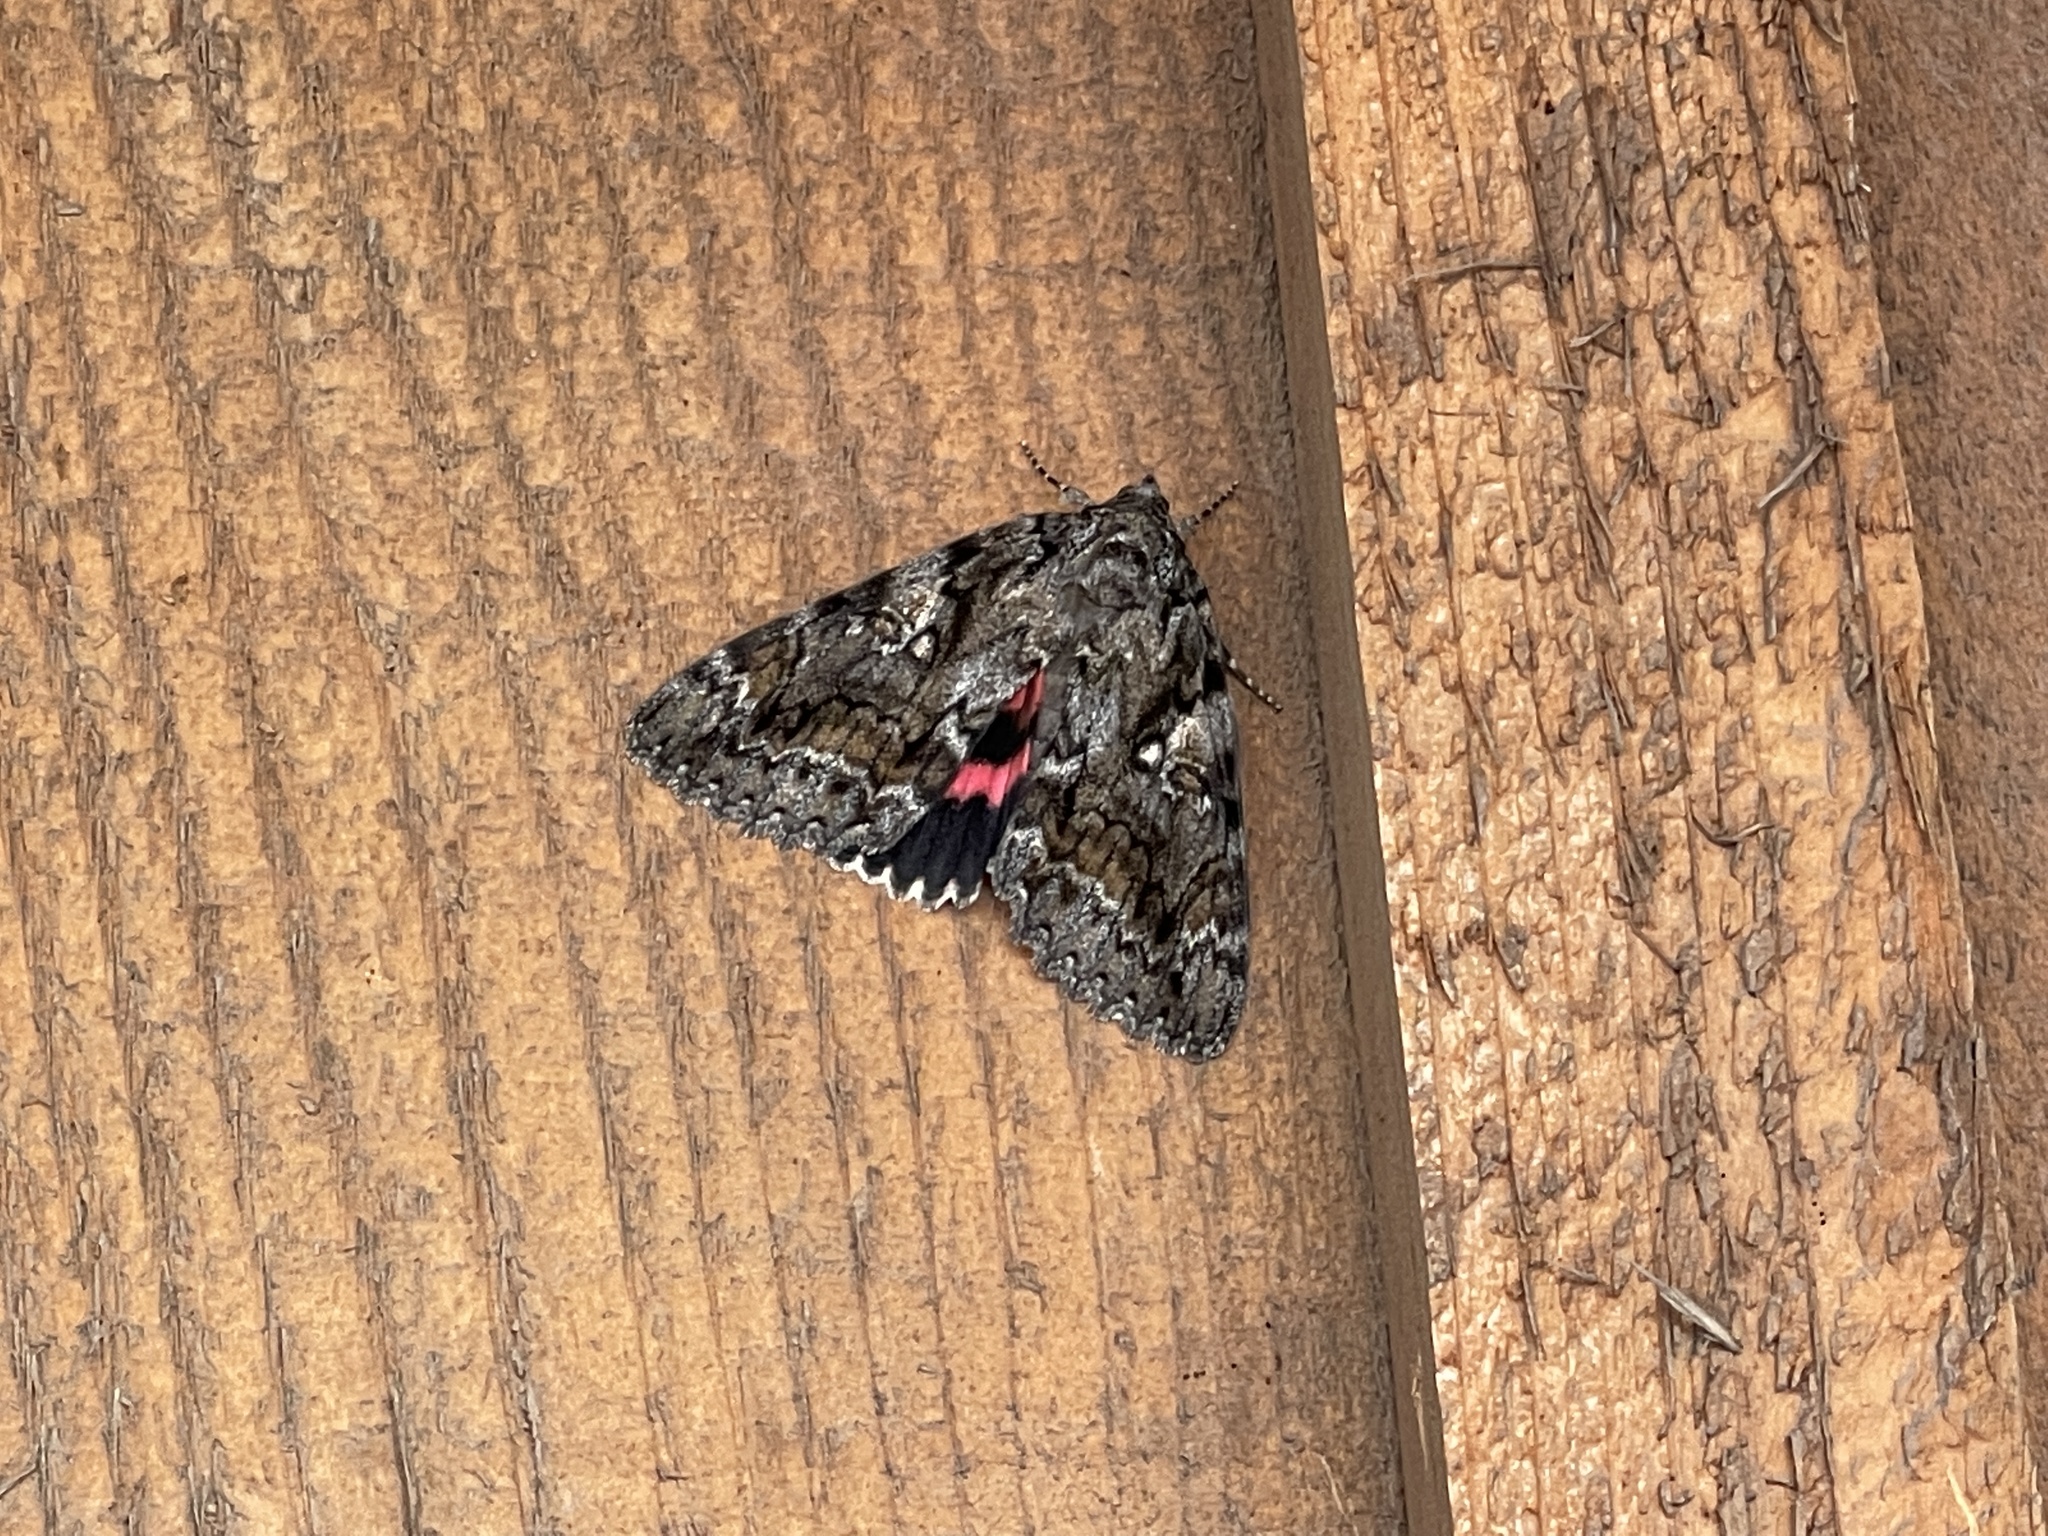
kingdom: Animalia
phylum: Arthropoda
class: Insecta
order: Lepidoptera
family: Erebidae
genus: Catocala
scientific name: Catocala aholibah
